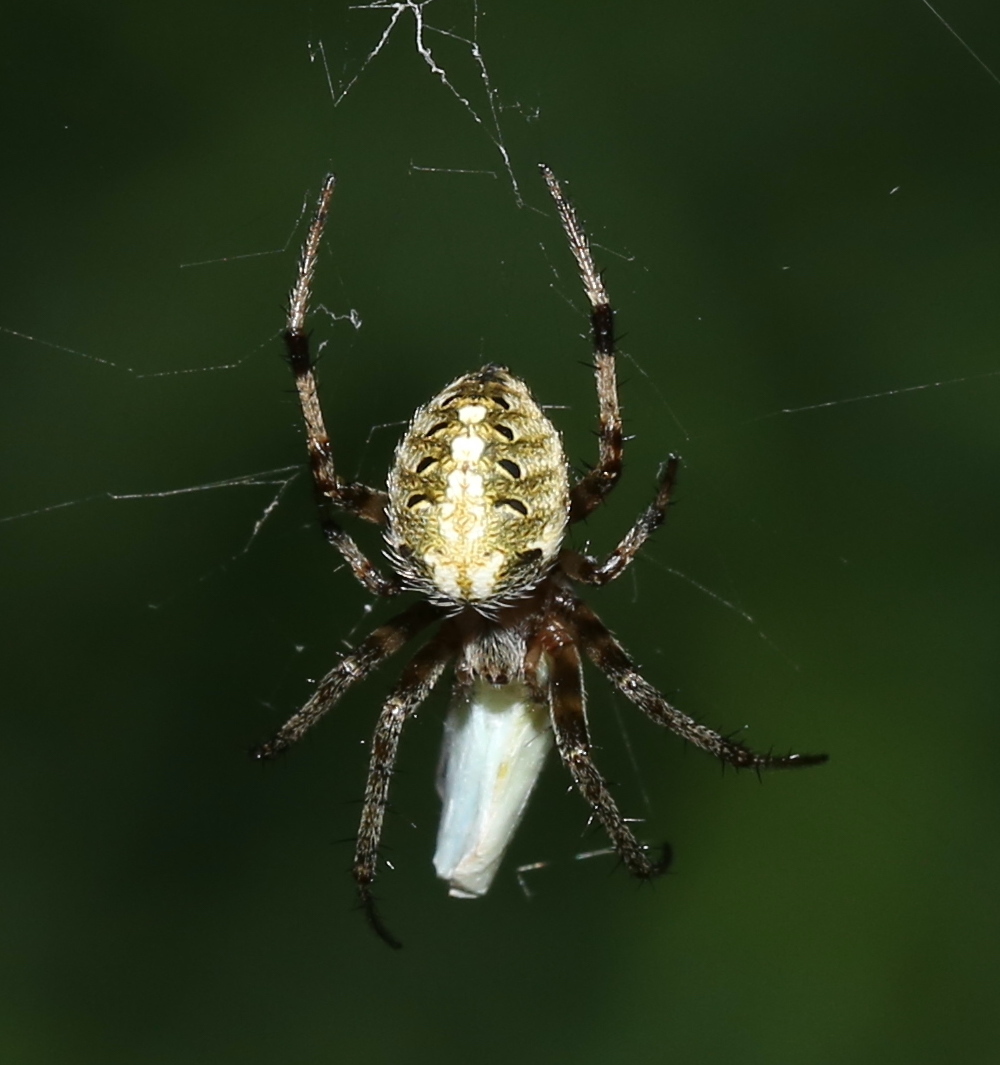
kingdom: Animalia
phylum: Arthropoda
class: Arachnida
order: Araneae
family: Araneidae
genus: Neoscona
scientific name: Neoscona arabesca
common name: Orb weavers
